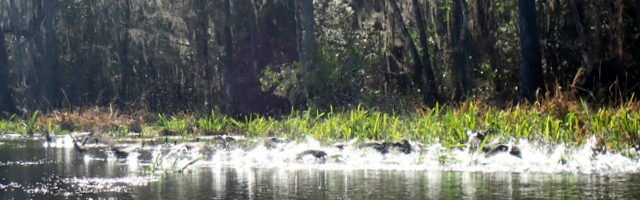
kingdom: Animalia
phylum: Chordata
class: Aves
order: Gruiformes
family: Rallidae
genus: Fulica
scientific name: Fulica americana
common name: American coot
